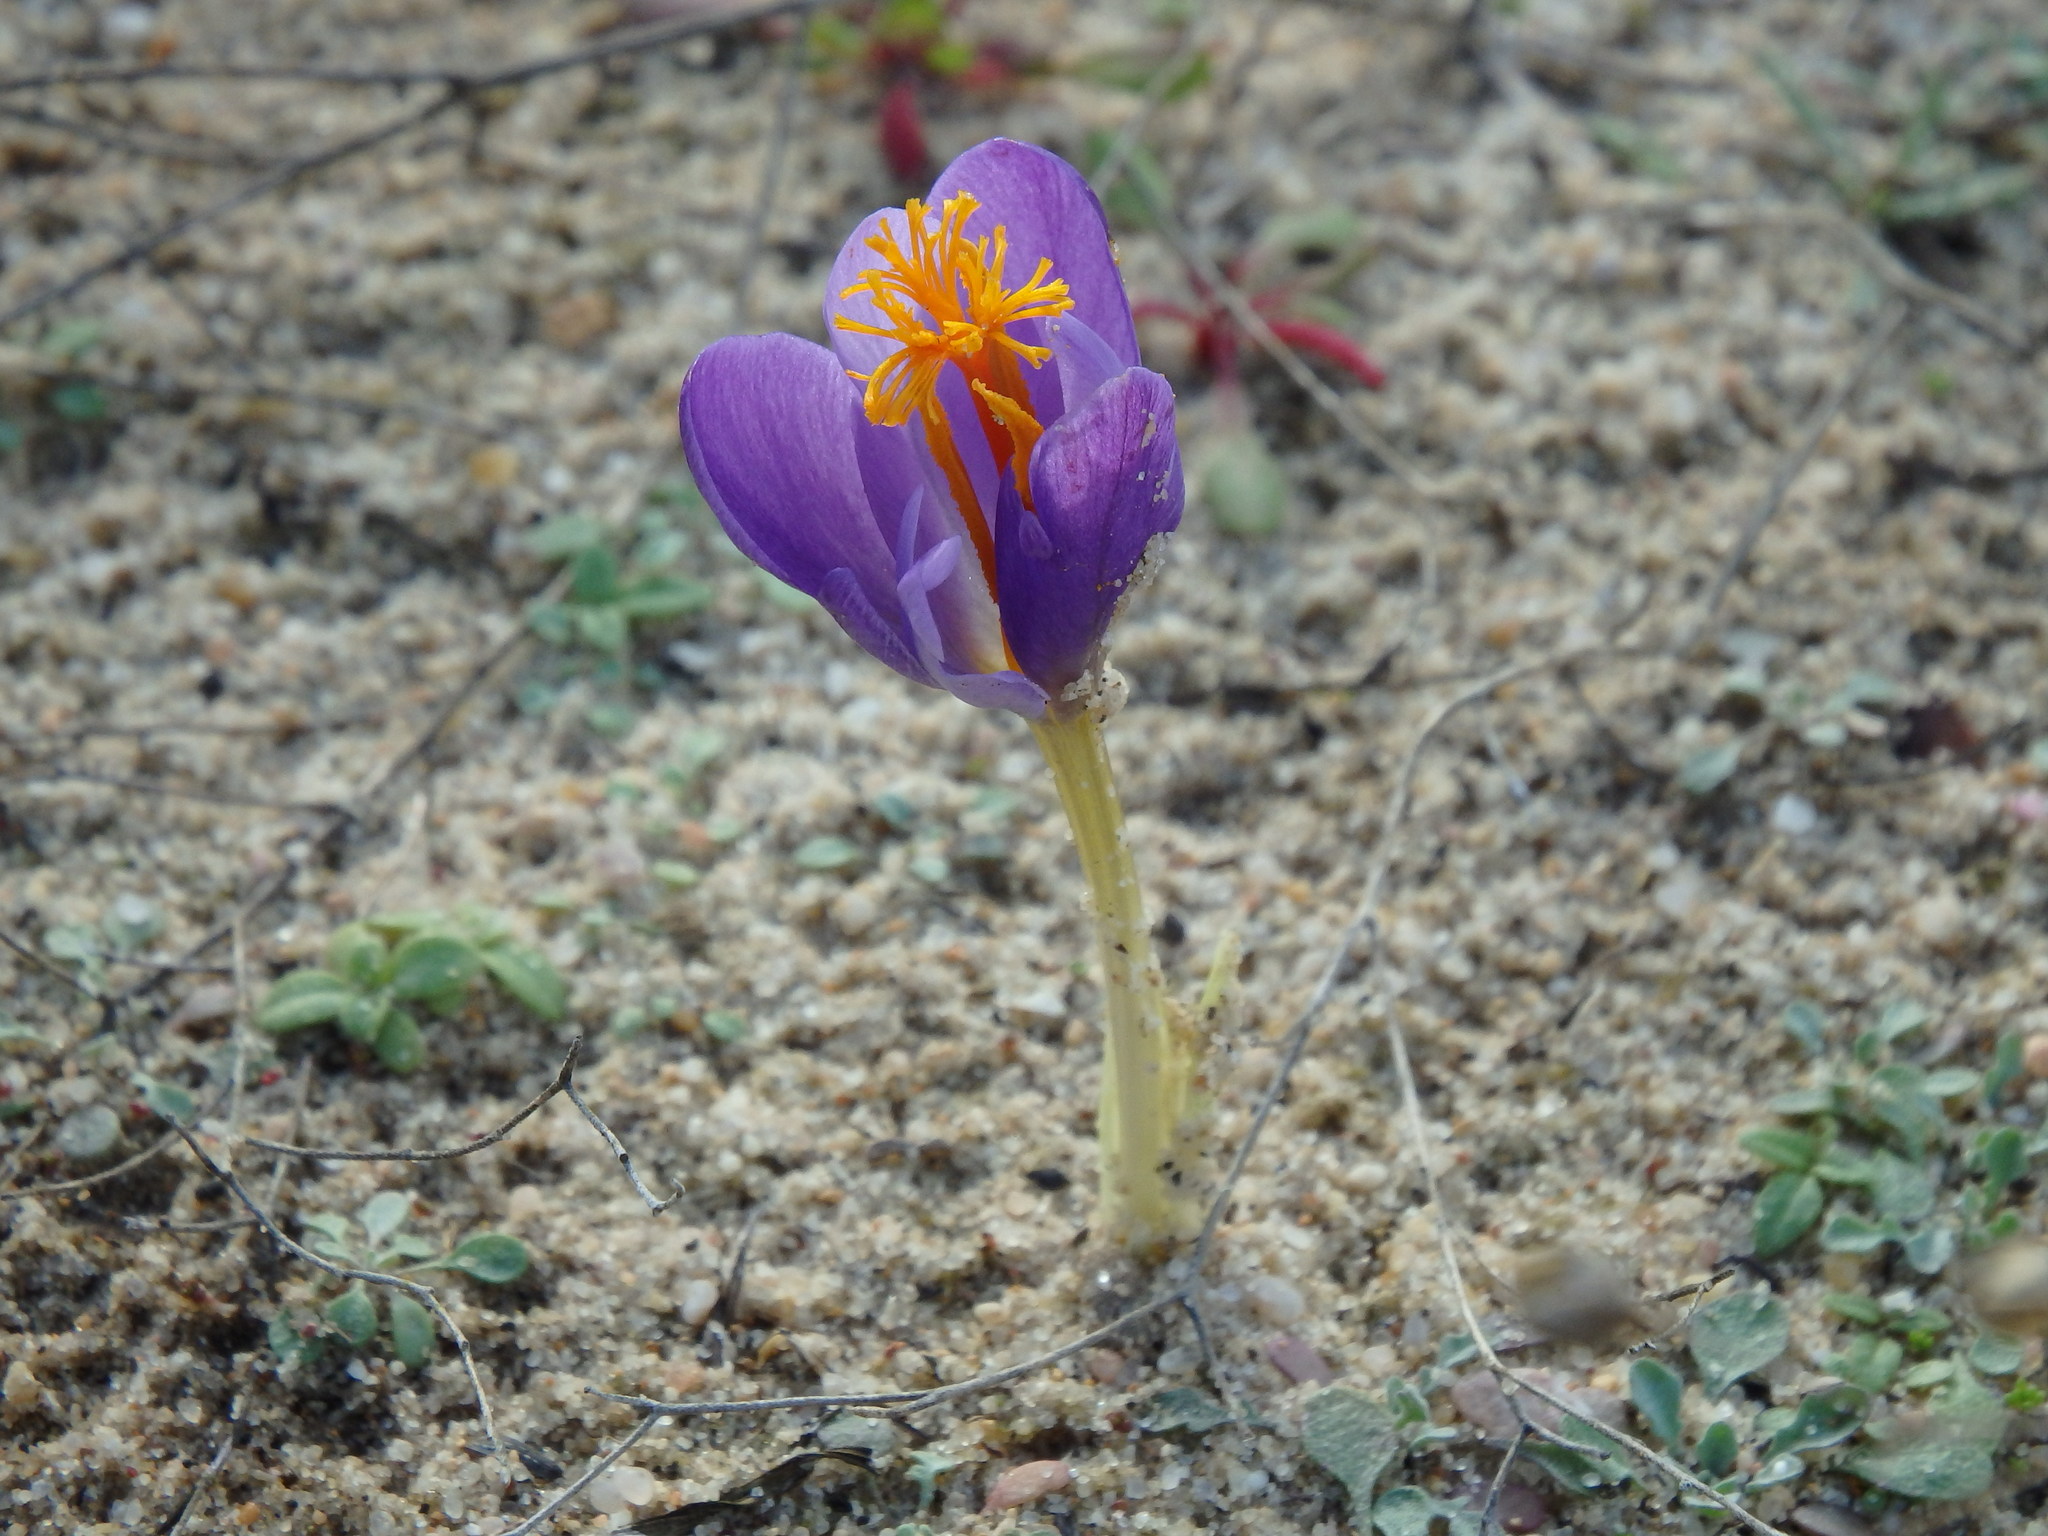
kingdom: Plantae
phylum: Tracheophyta
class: Liliopsida
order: Asparagales
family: Iridaceae
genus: Crocus
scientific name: Crocus serotinus
